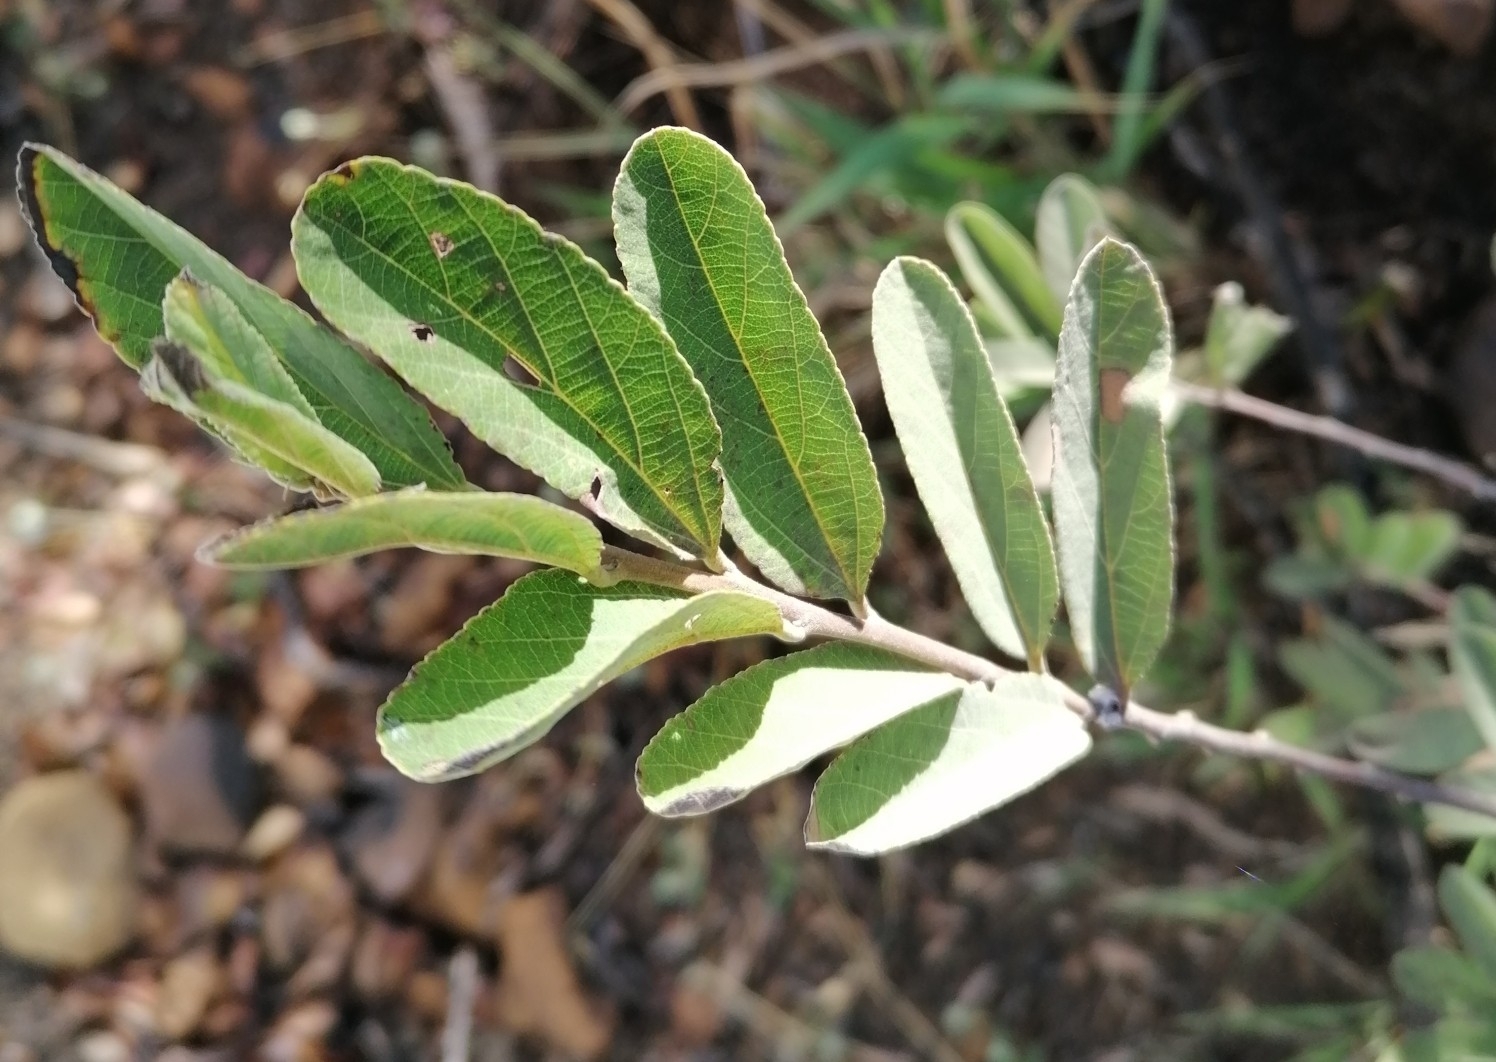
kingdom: Plantae
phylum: Tracheophyta
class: Magnoliopsida
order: Malvales
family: Malvaceae
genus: Grewia
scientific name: Grewia flava
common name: Brandy bush
